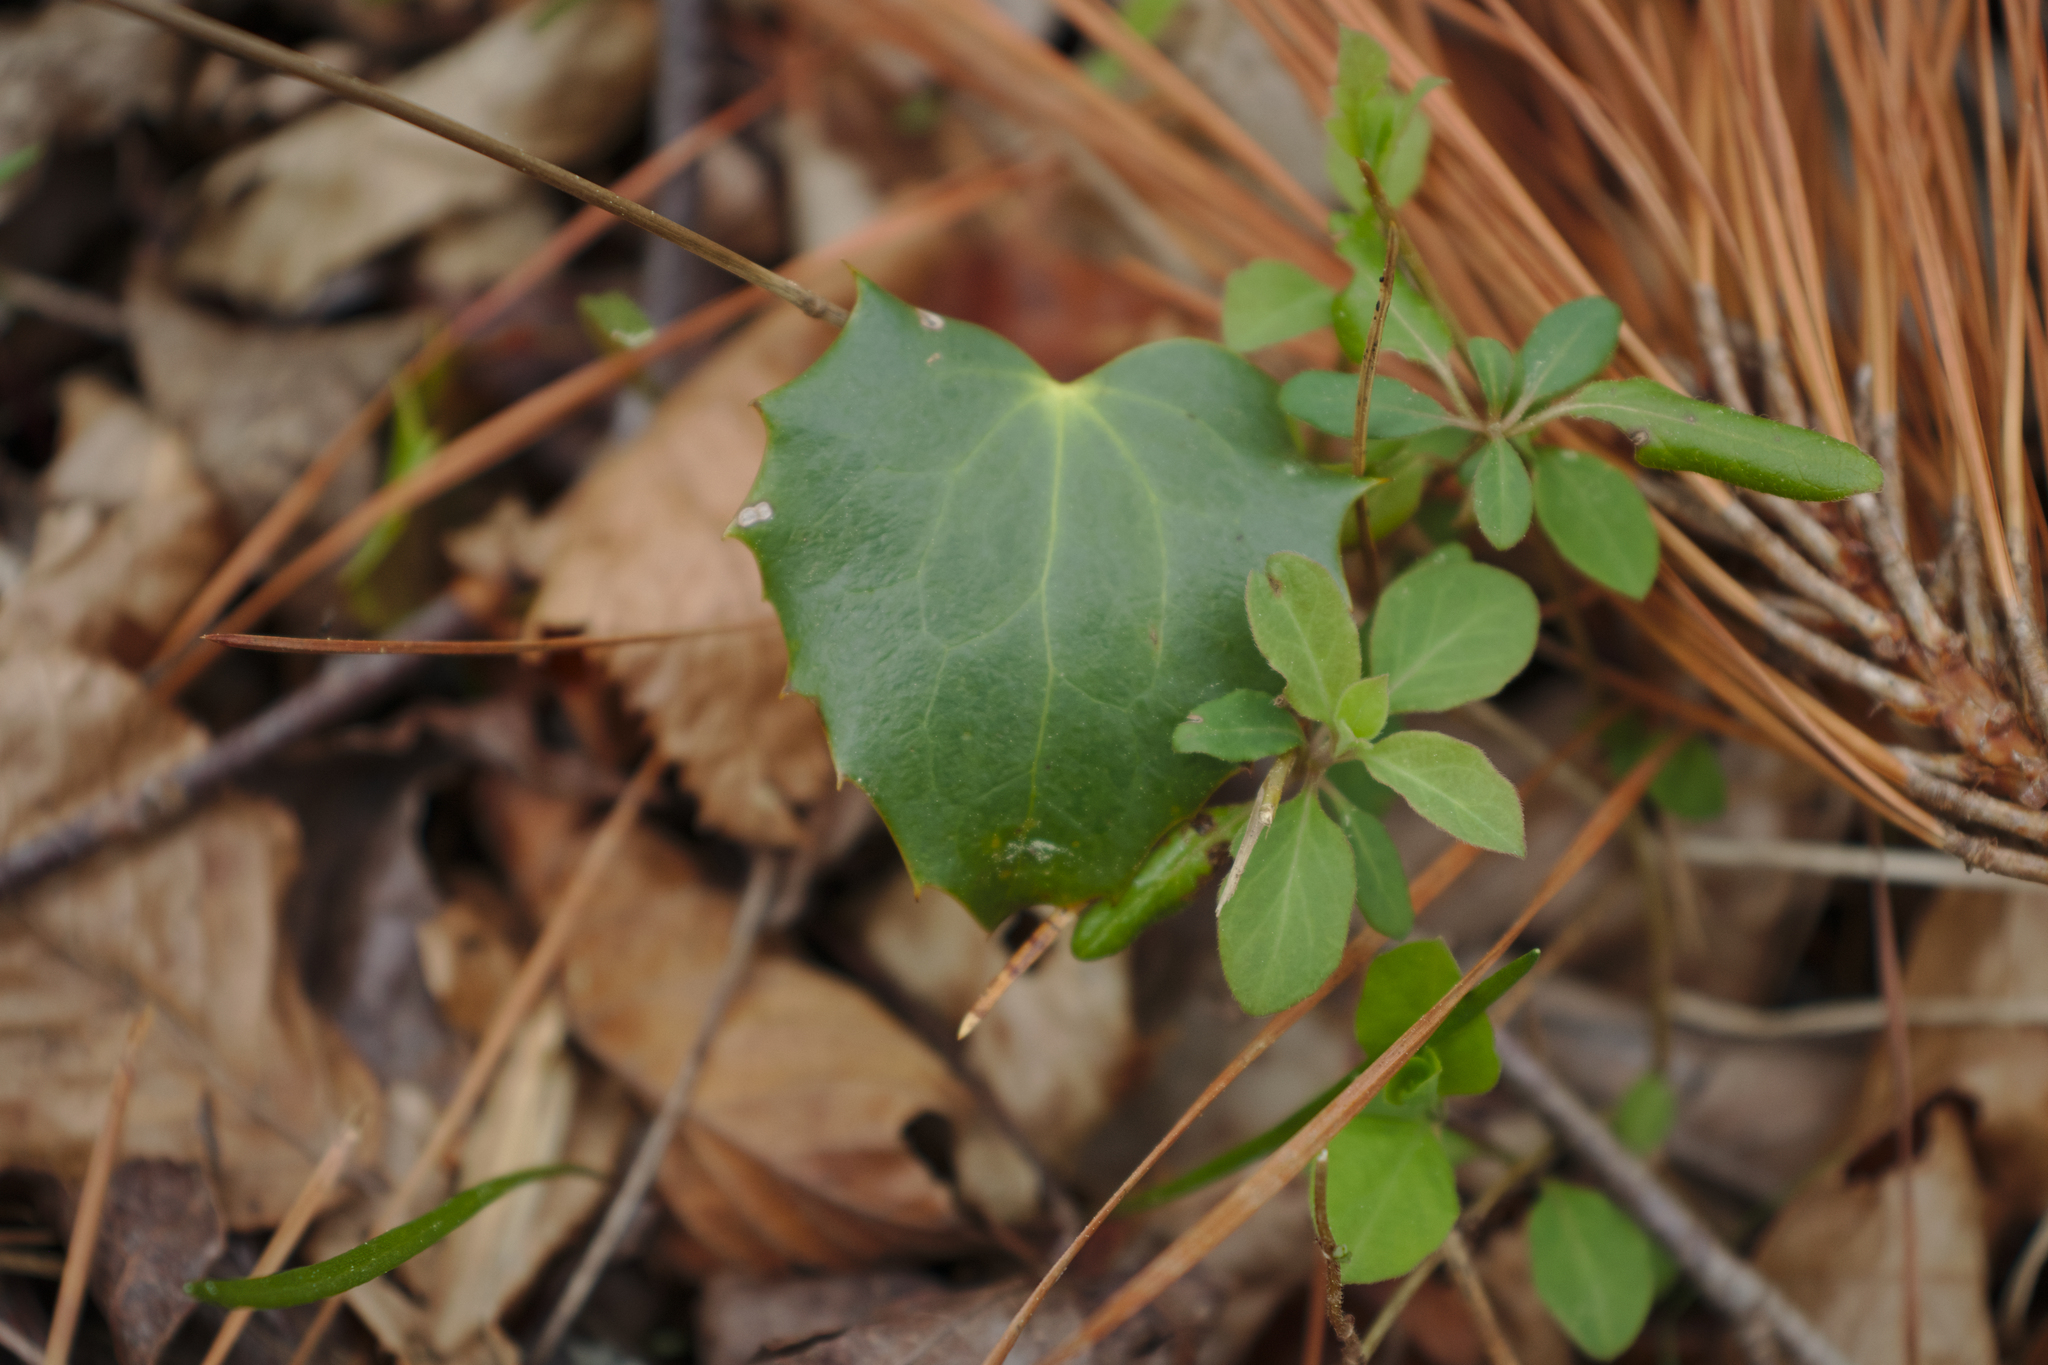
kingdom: Plantae
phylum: Tracheophyta
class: Magnoliopsida
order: Ranunculales
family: Berberidaceae
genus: Mahonia
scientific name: Mahonia bealei
